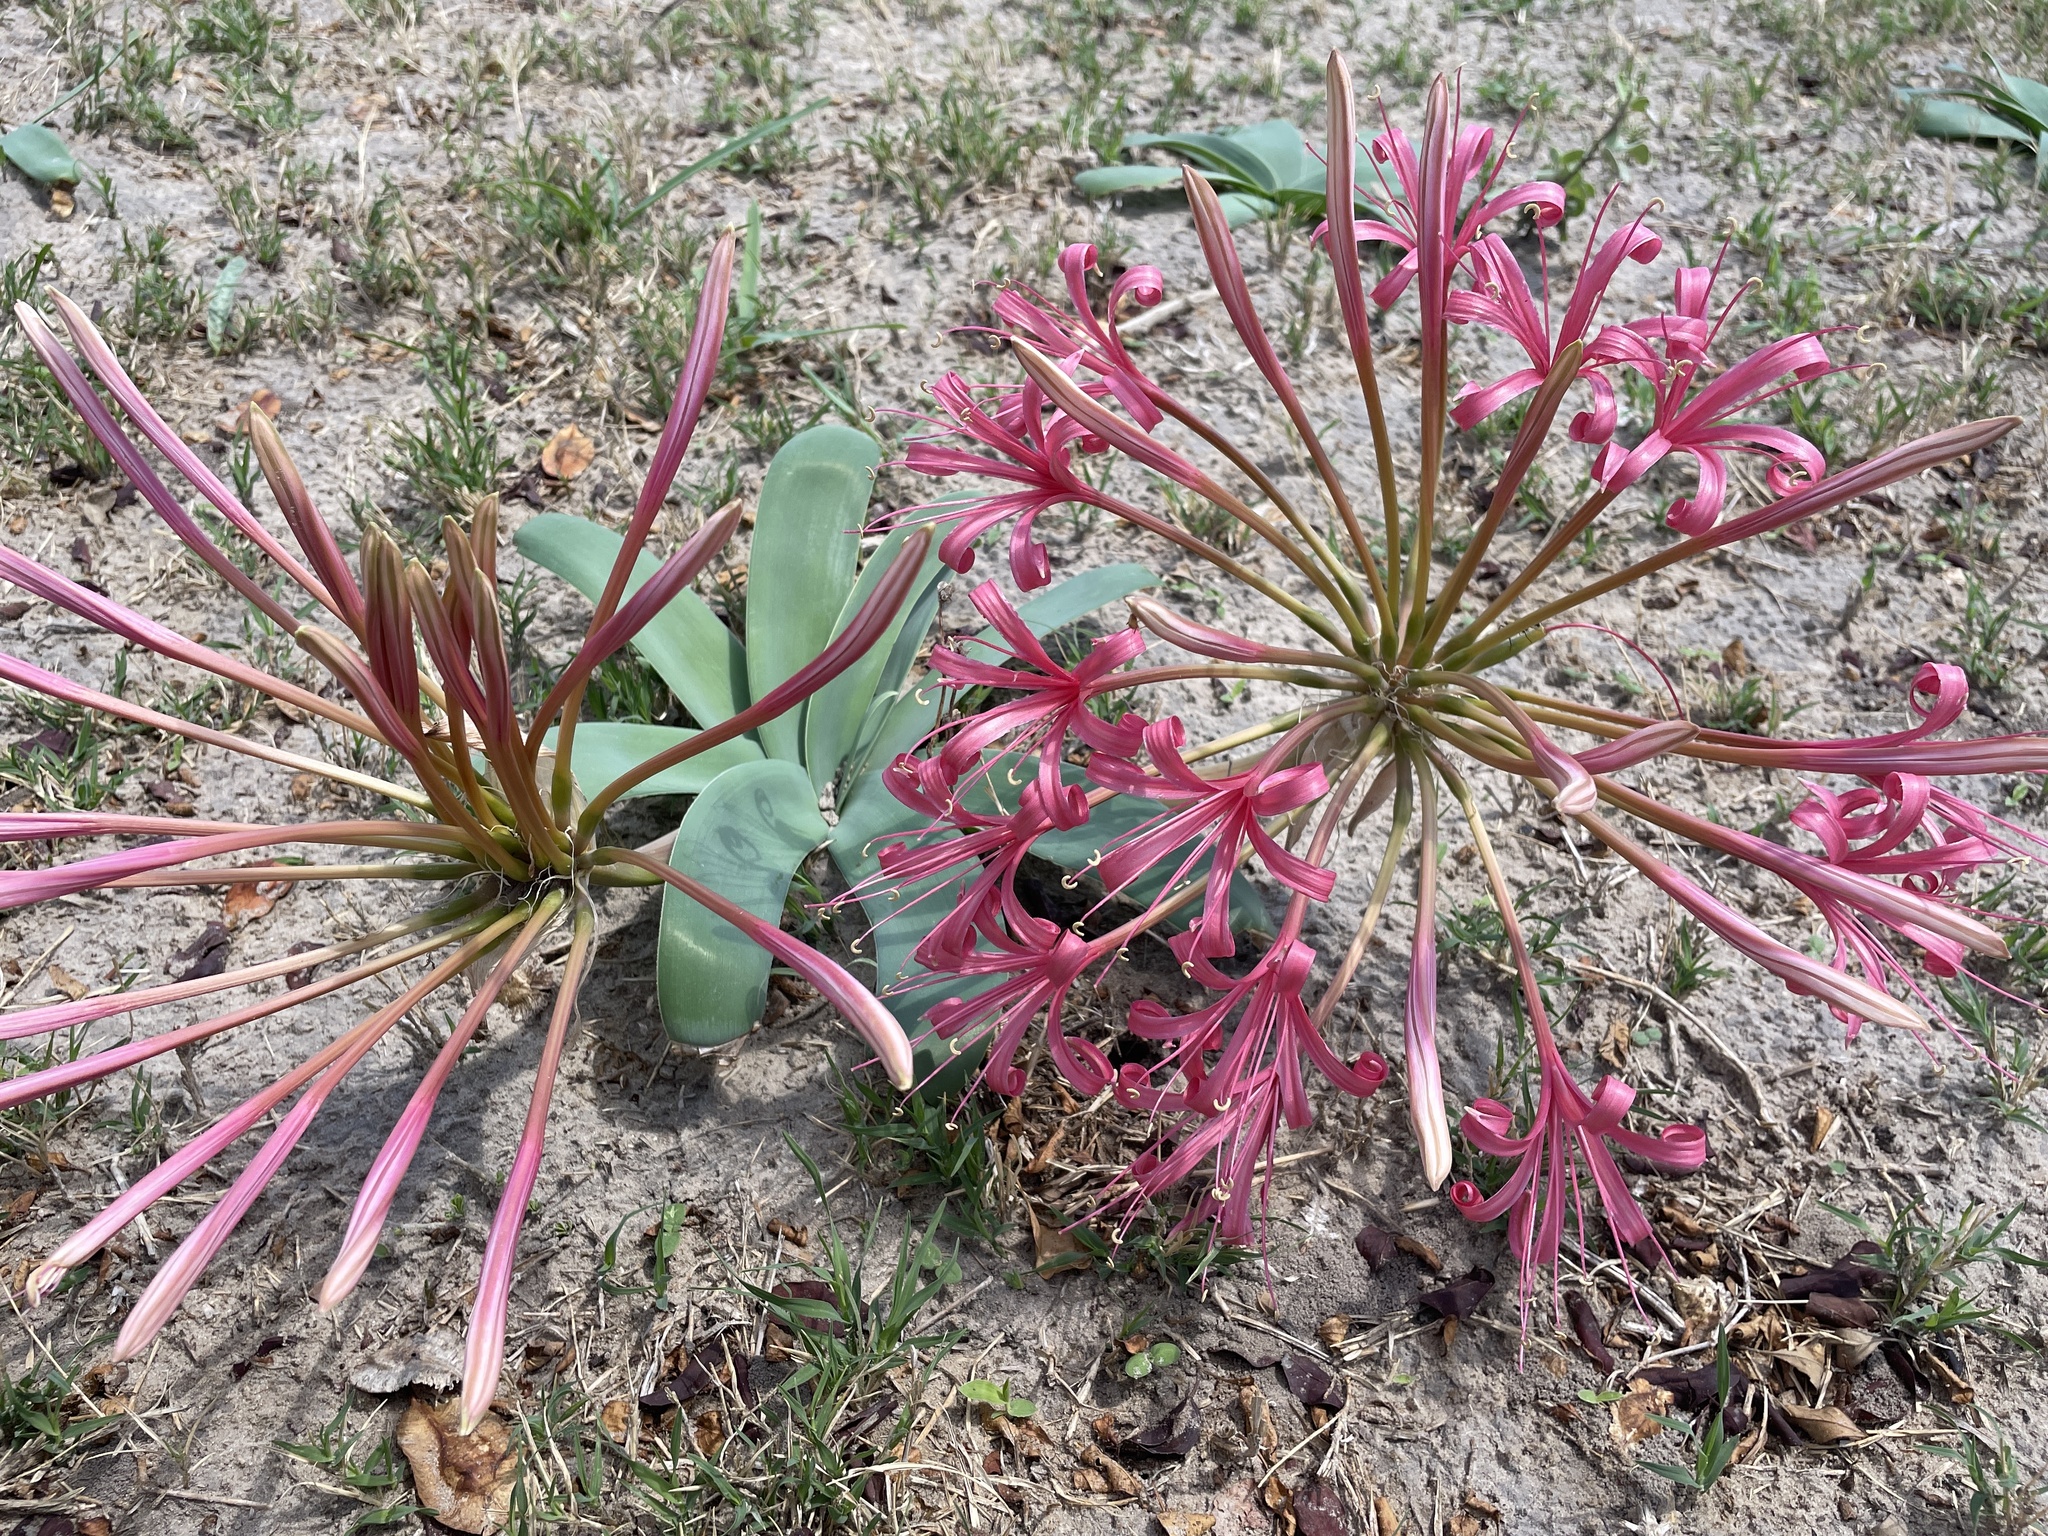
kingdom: Plantae
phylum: Tracheophyta
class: Liliopsida
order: Asparagales
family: Amaryllidaceae
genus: Ammocharis
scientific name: Ammocharis tinneana
